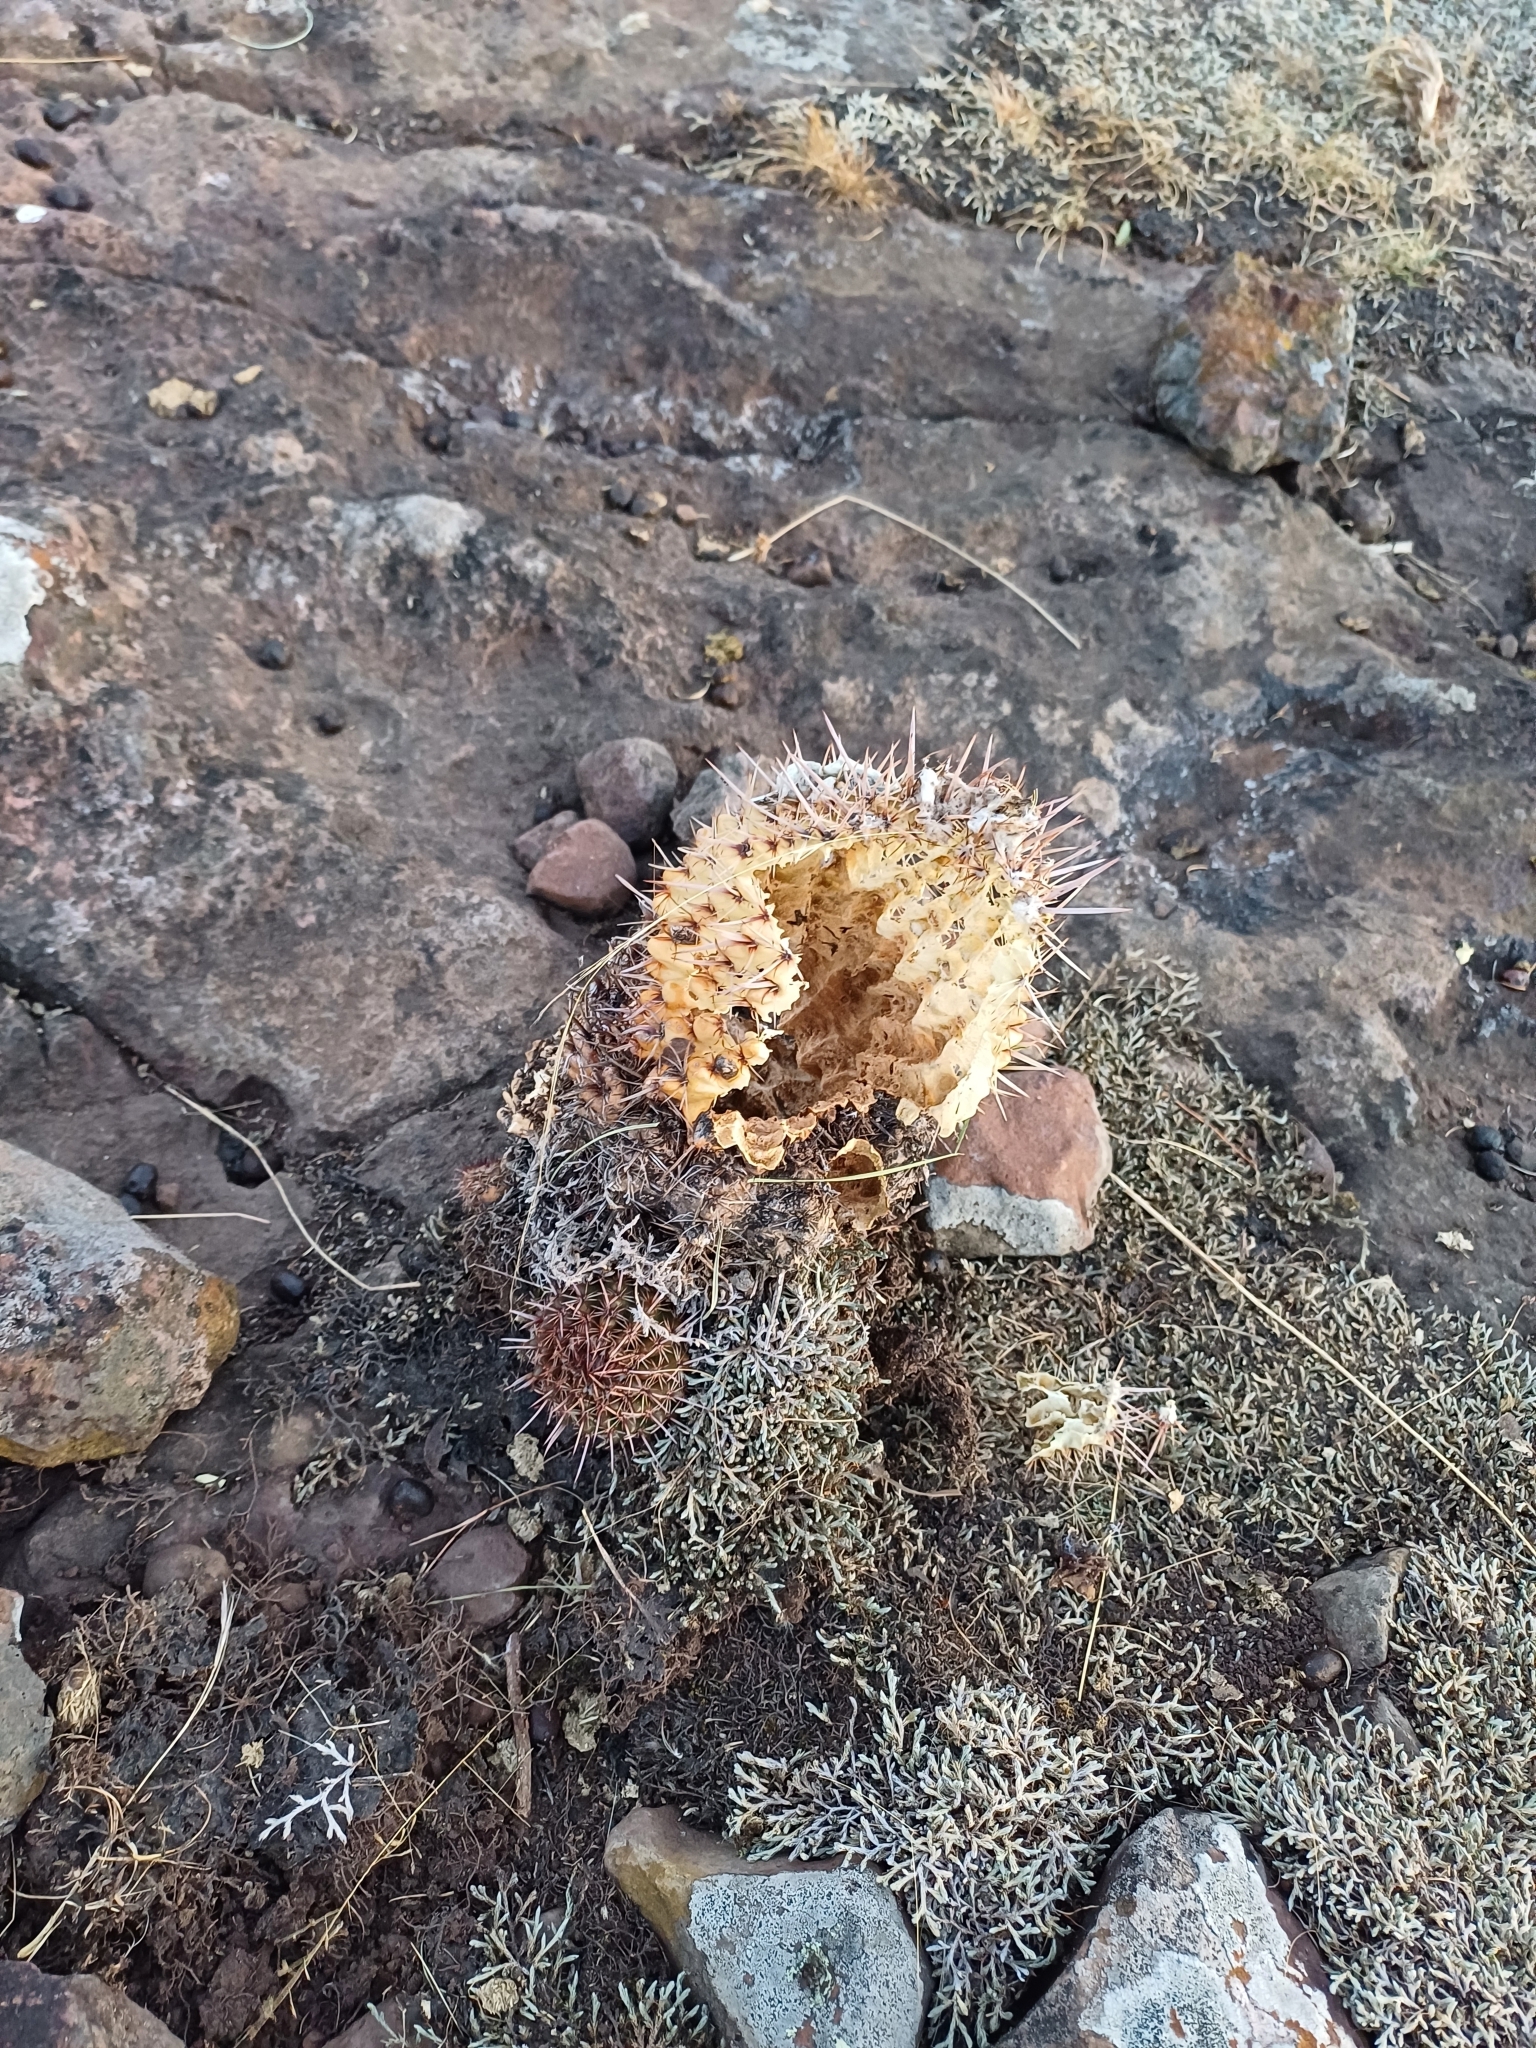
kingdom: Plantae
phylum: Tracheophyta
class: Magnoliopsida
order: Caryophyllales
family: Cactaceae
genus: Parodia
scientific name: Parodia mammulosa
